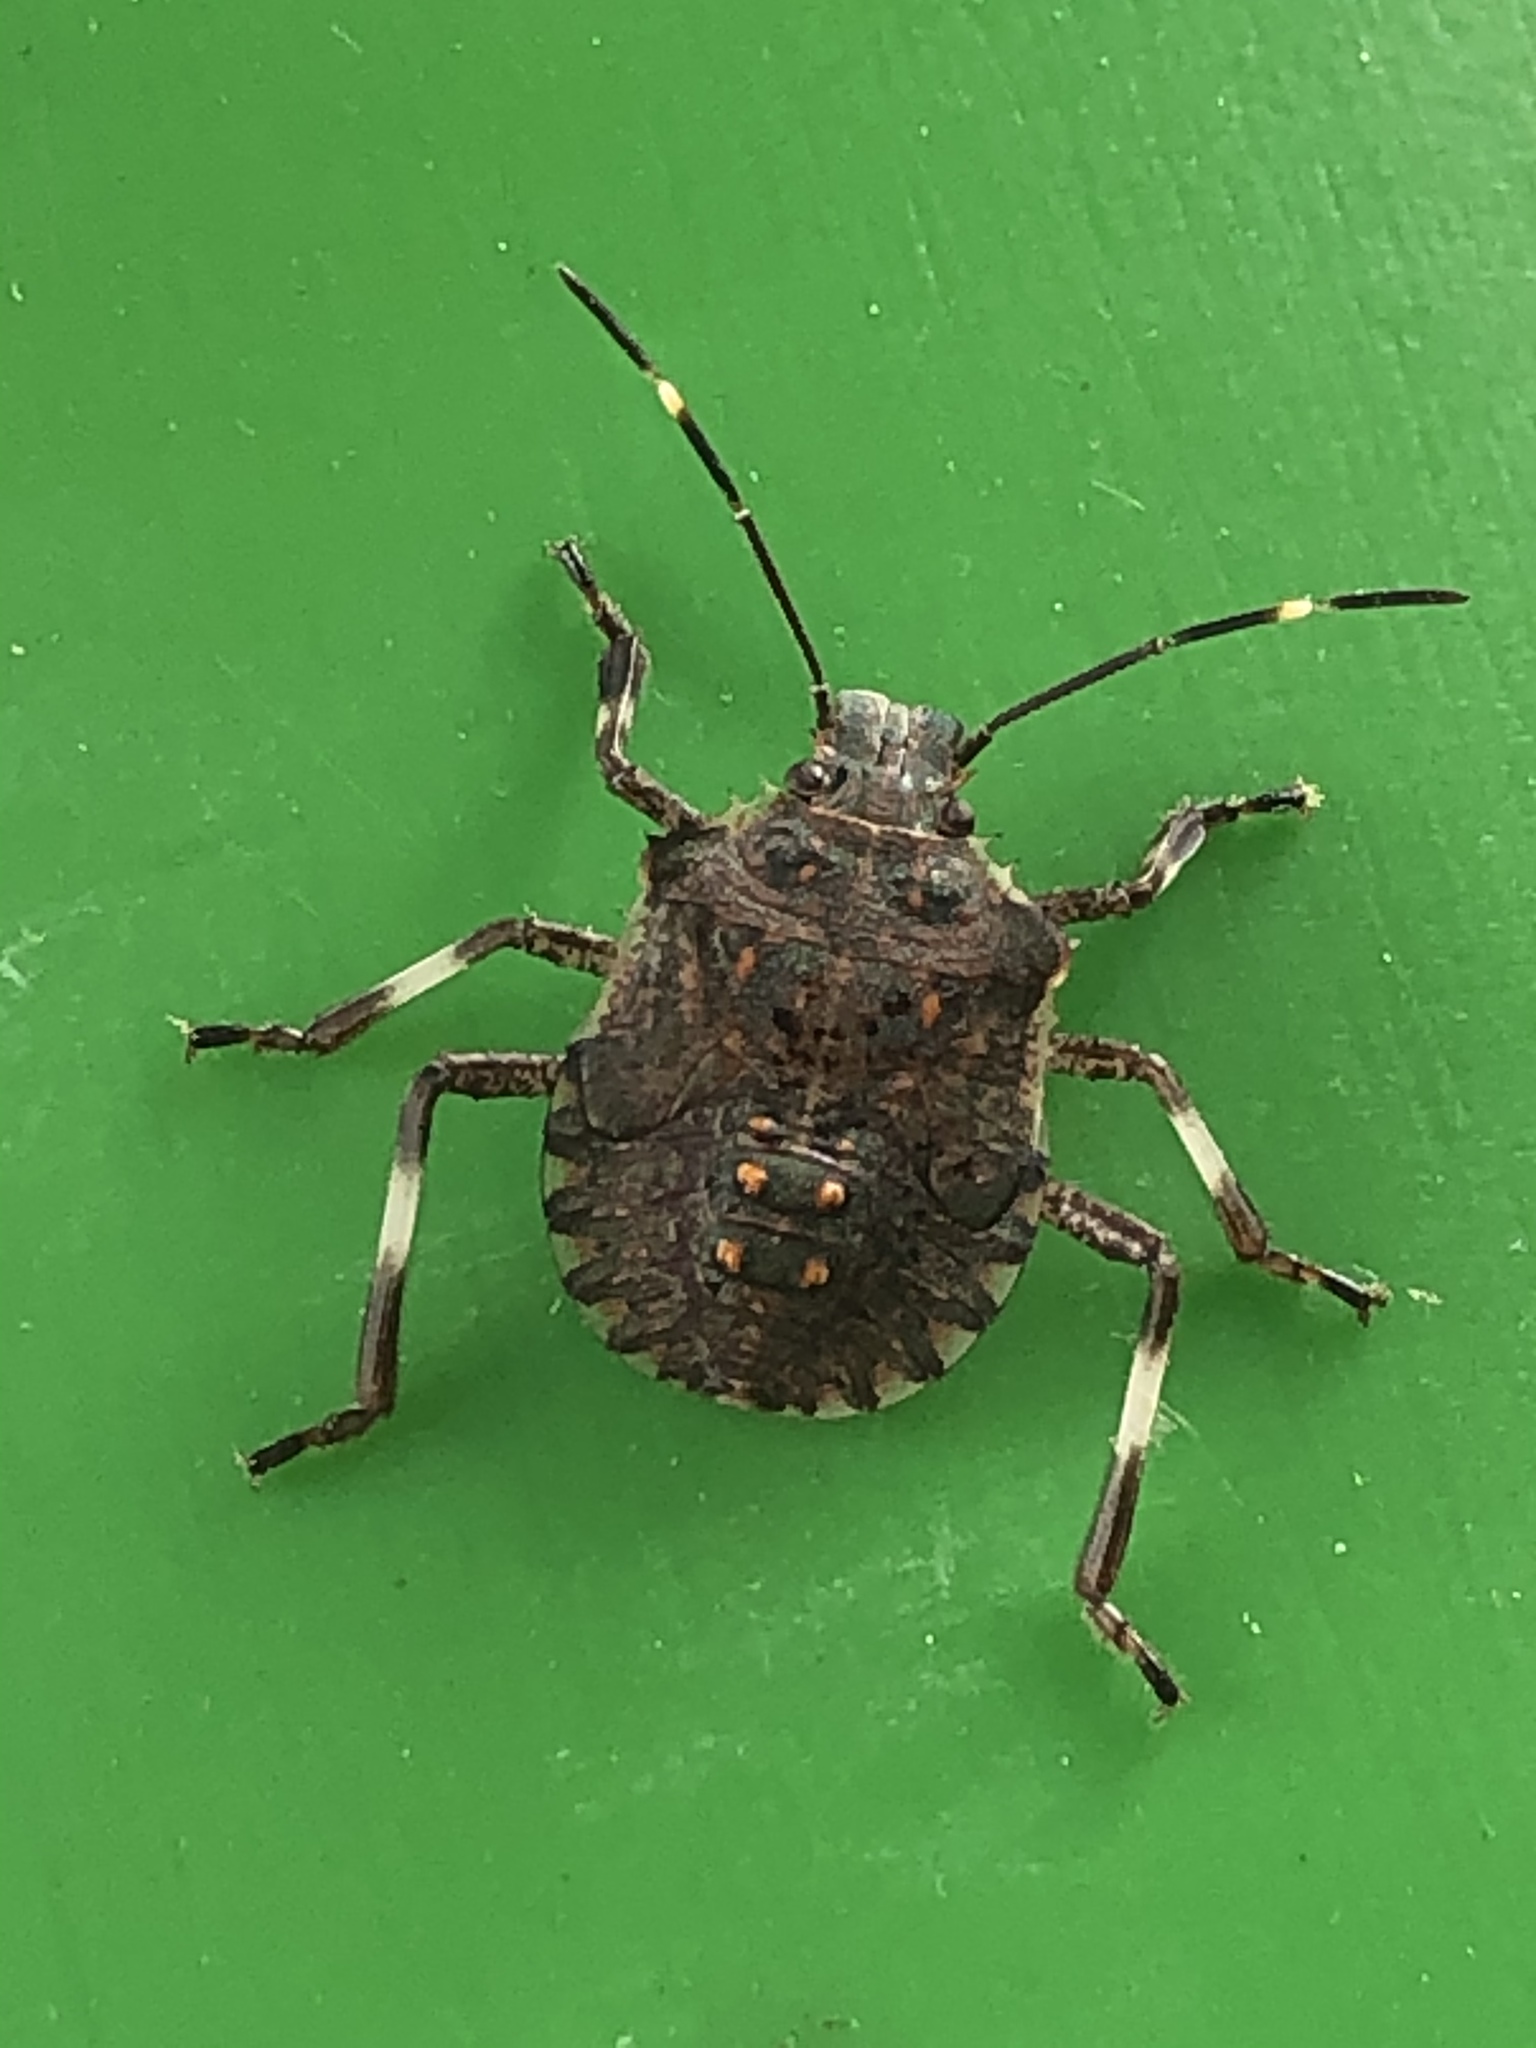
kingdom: Animalia
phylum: Arthropoda
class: Insecta
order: Hemiptera
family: Pentatomidae
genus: Halyomorpha
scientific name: Halyomorpha halys
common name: Brown marmorated stink bug
